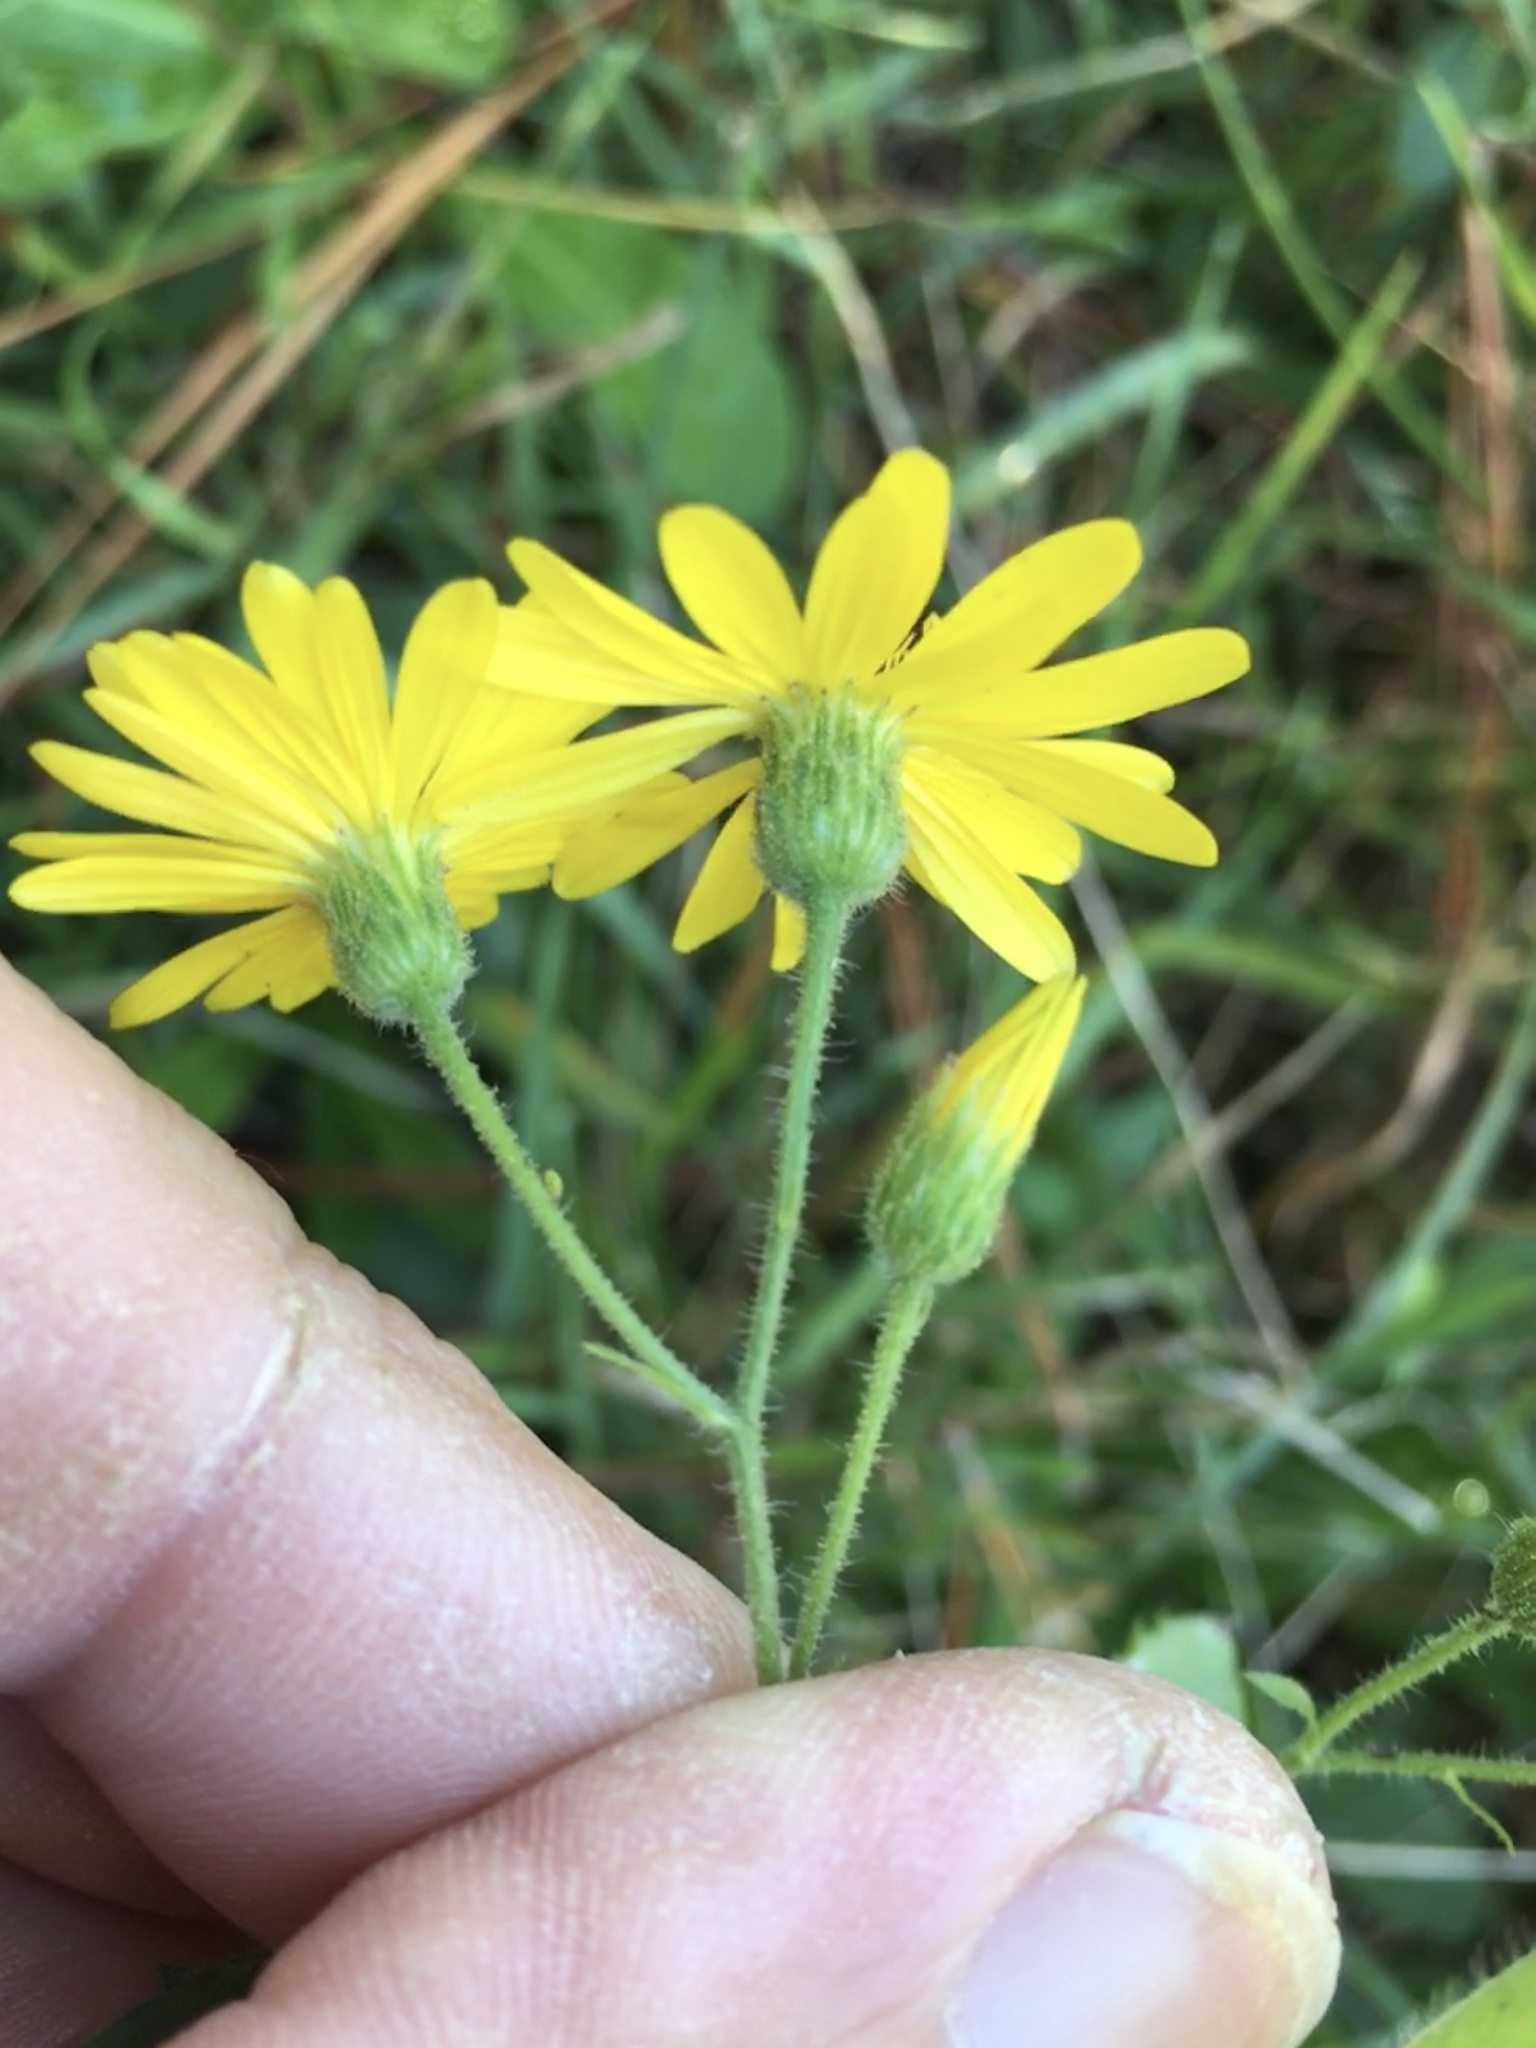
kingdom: Plantae
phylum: Tracheophyta
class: Magnoliopsida
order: Asterales
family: Asteraceae
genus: Heterotheca
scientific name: Heterotheca subaxillaris
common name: Camphorweed
